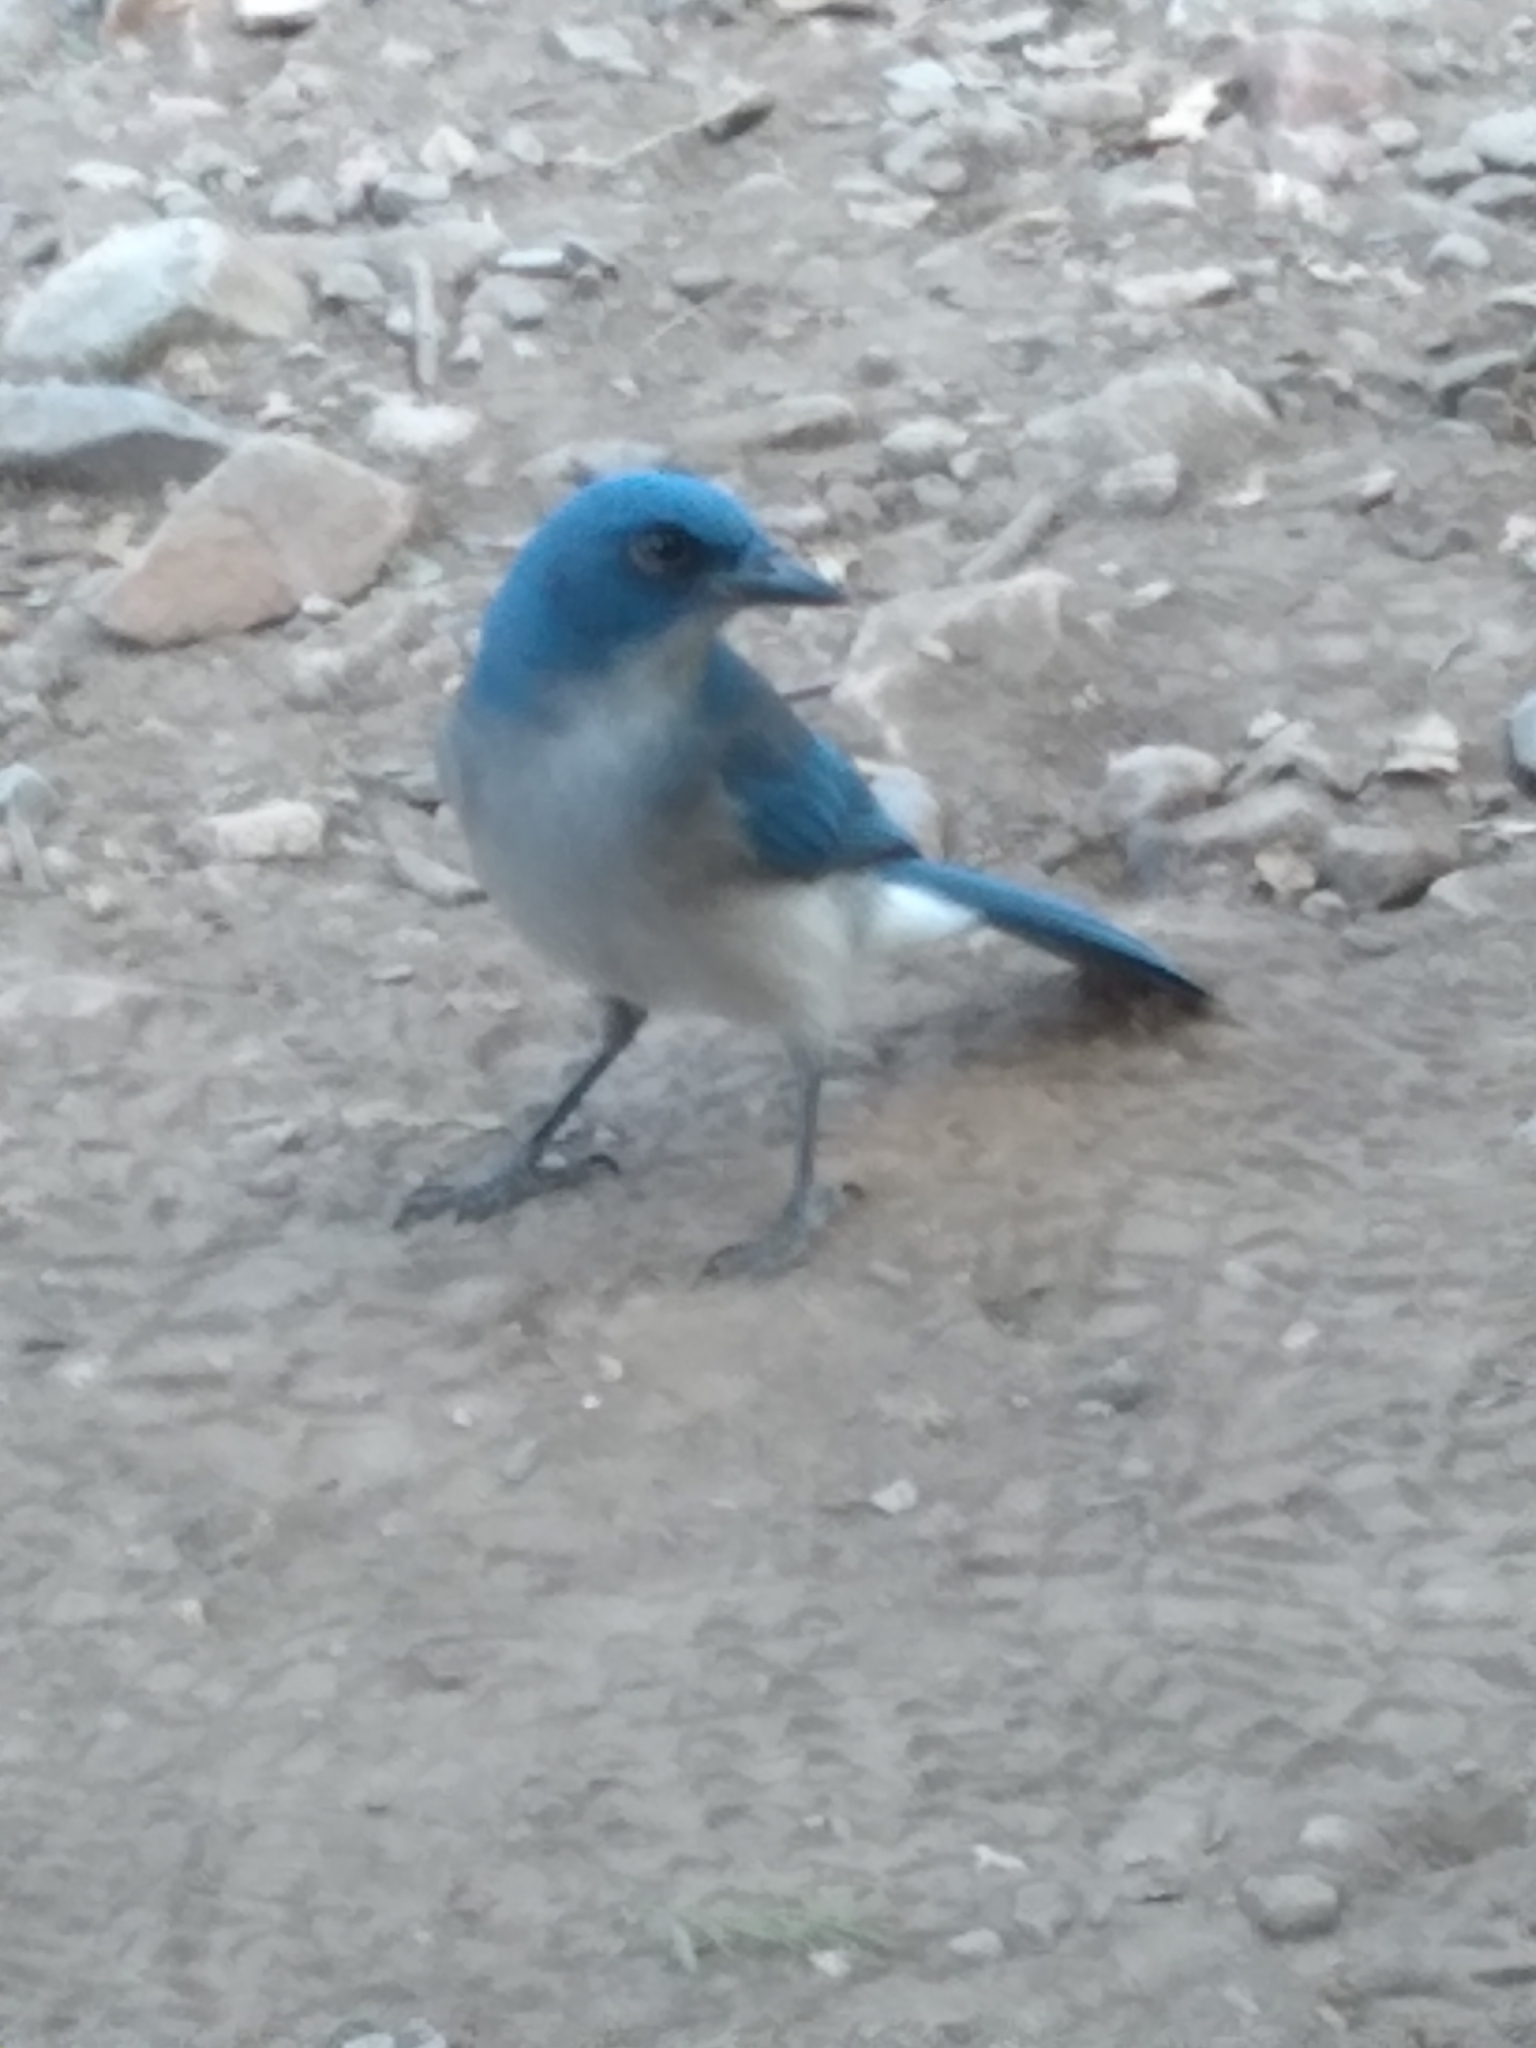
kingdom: Animalia
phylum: Chordata
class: Aves
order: Passeriformes
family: Corvidae
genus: Aphelocoma
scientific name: Aphelocoma wollweberi
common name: Mexican jay
